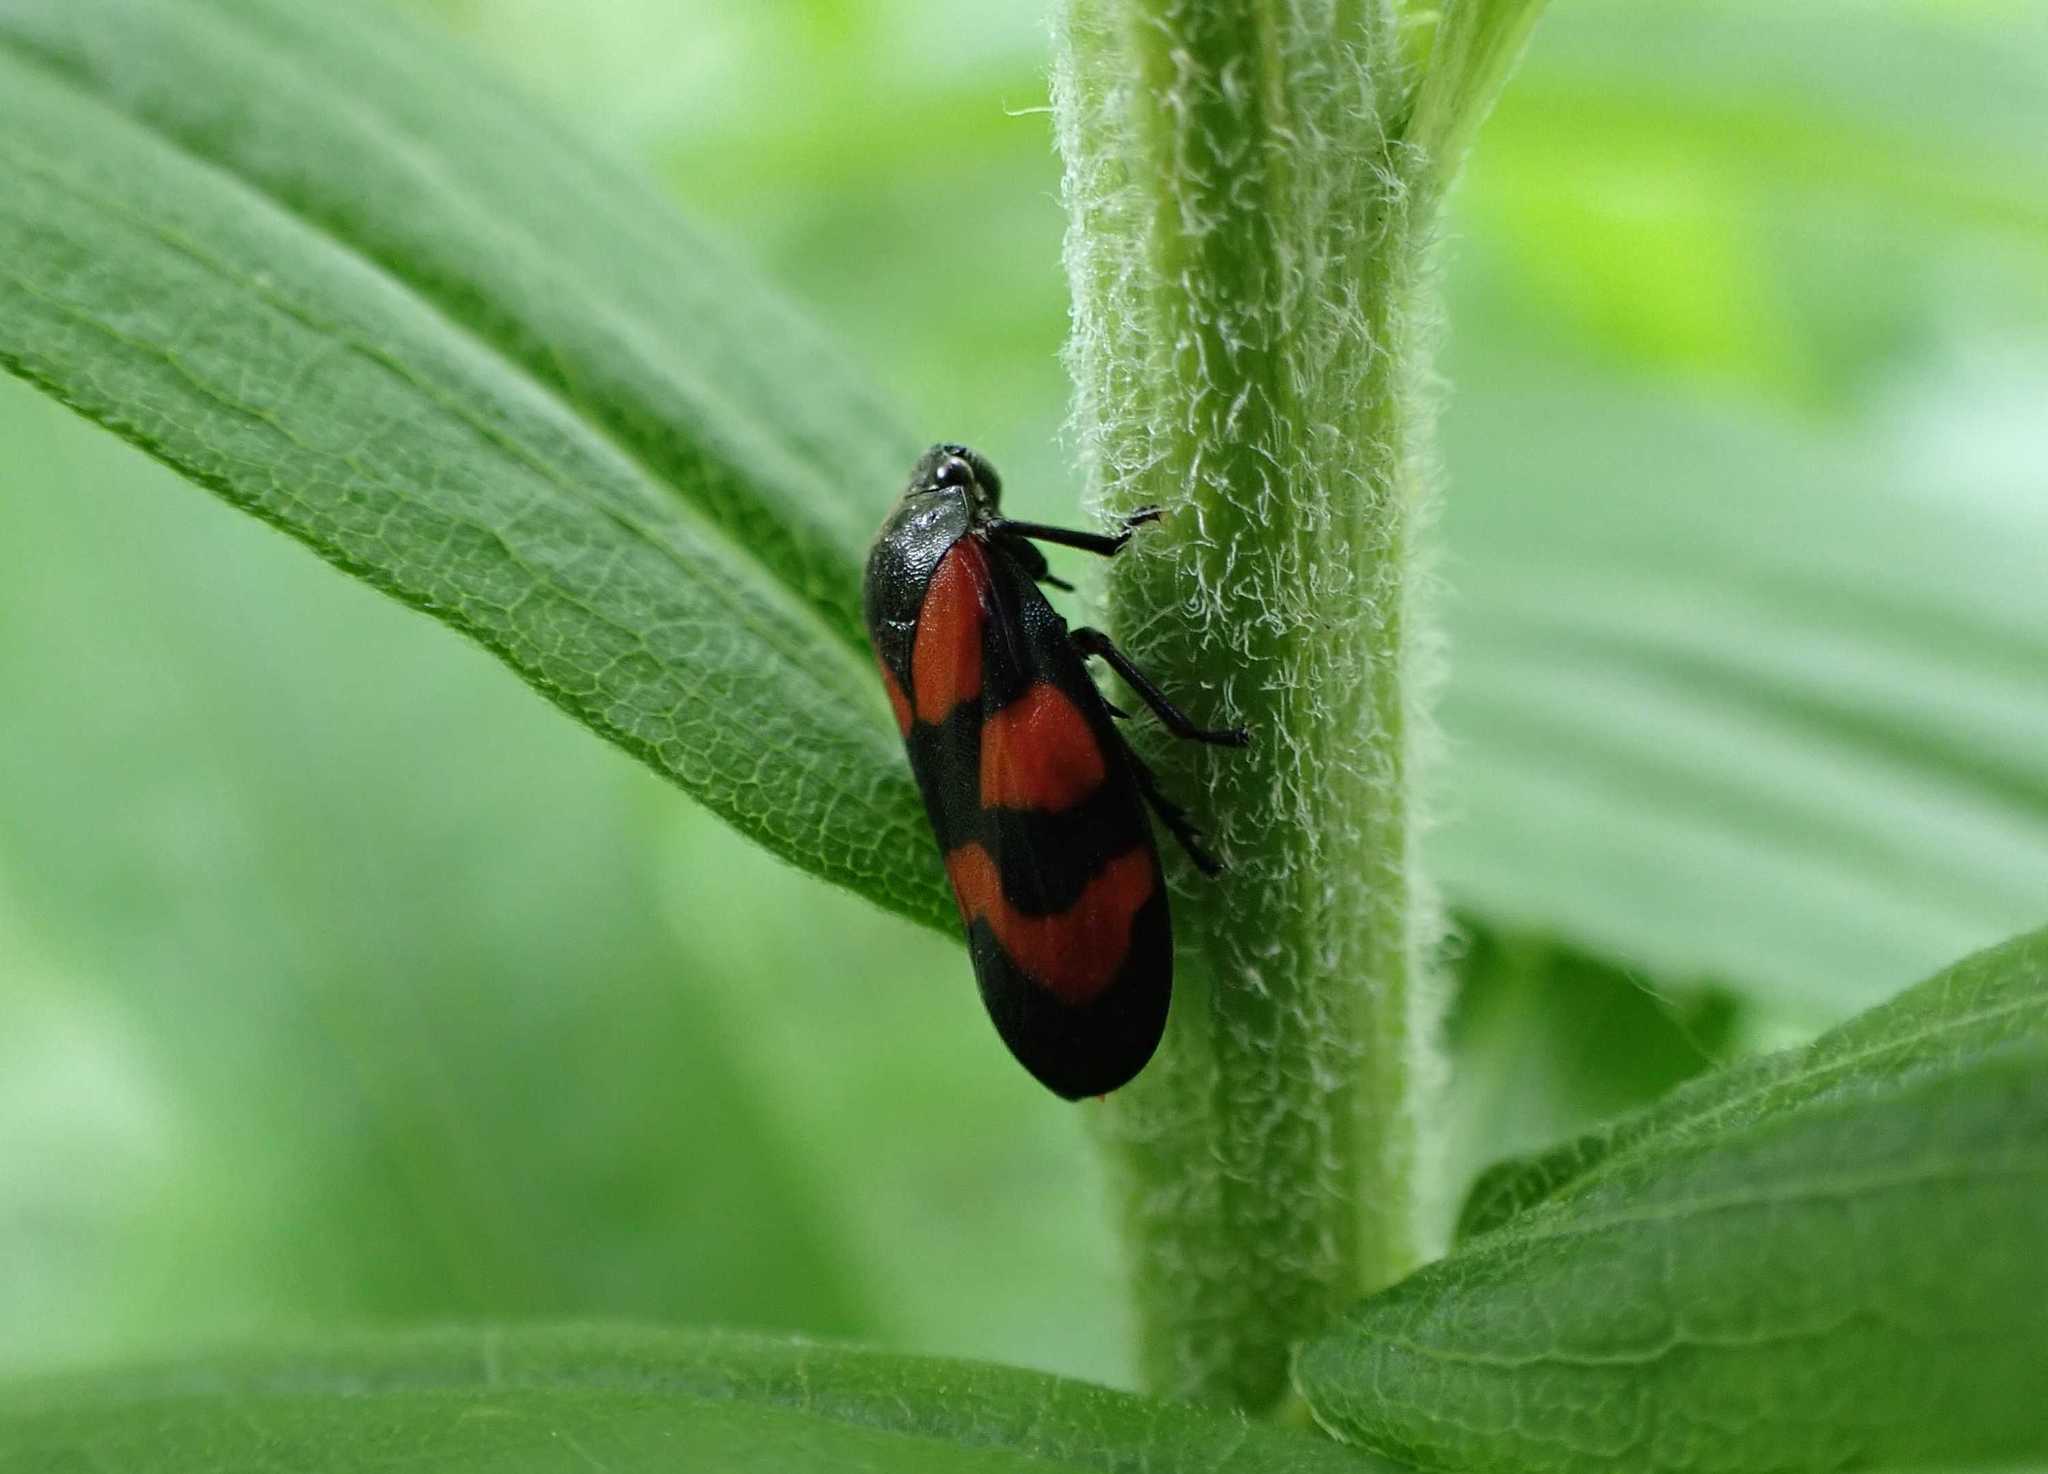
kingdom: Animalia
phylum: Arthropoda
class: Insecta
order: Hemiptera
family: Cercopidae
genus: Cercopis
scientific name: Cercopis vulnerata
